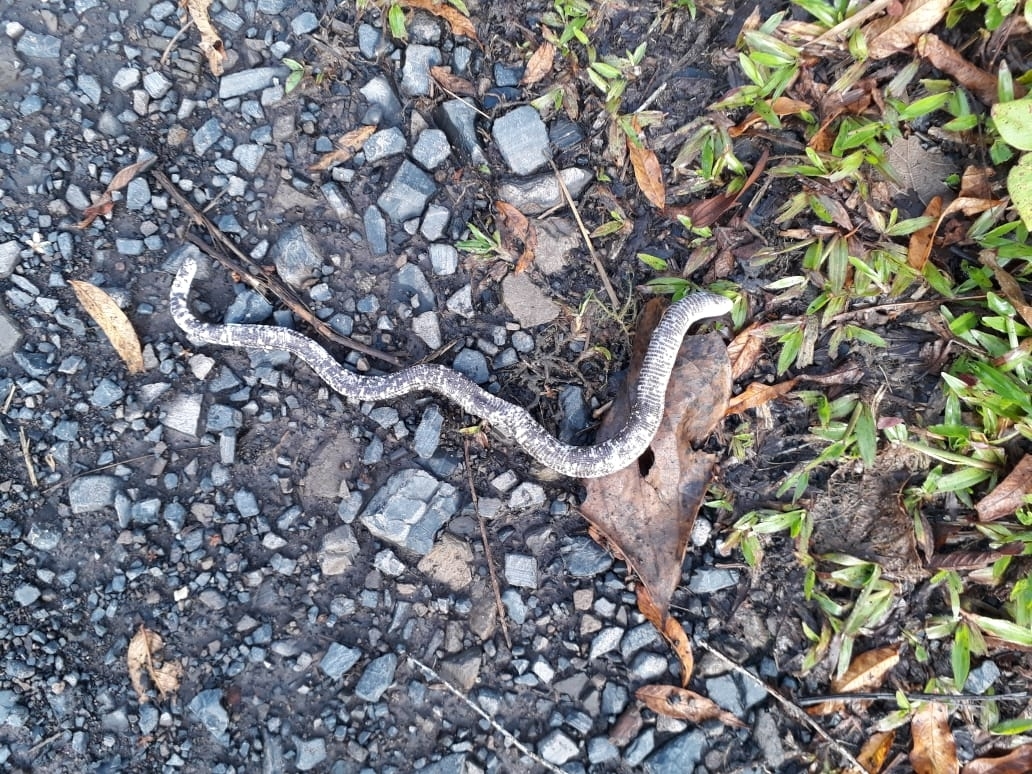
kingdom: Animalia
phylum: Chordata
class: Squamata
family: Amphisbaenidae
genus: Amphisbaena
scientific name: Amphisbaena fuliginosa
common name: Speckled worm lizard
